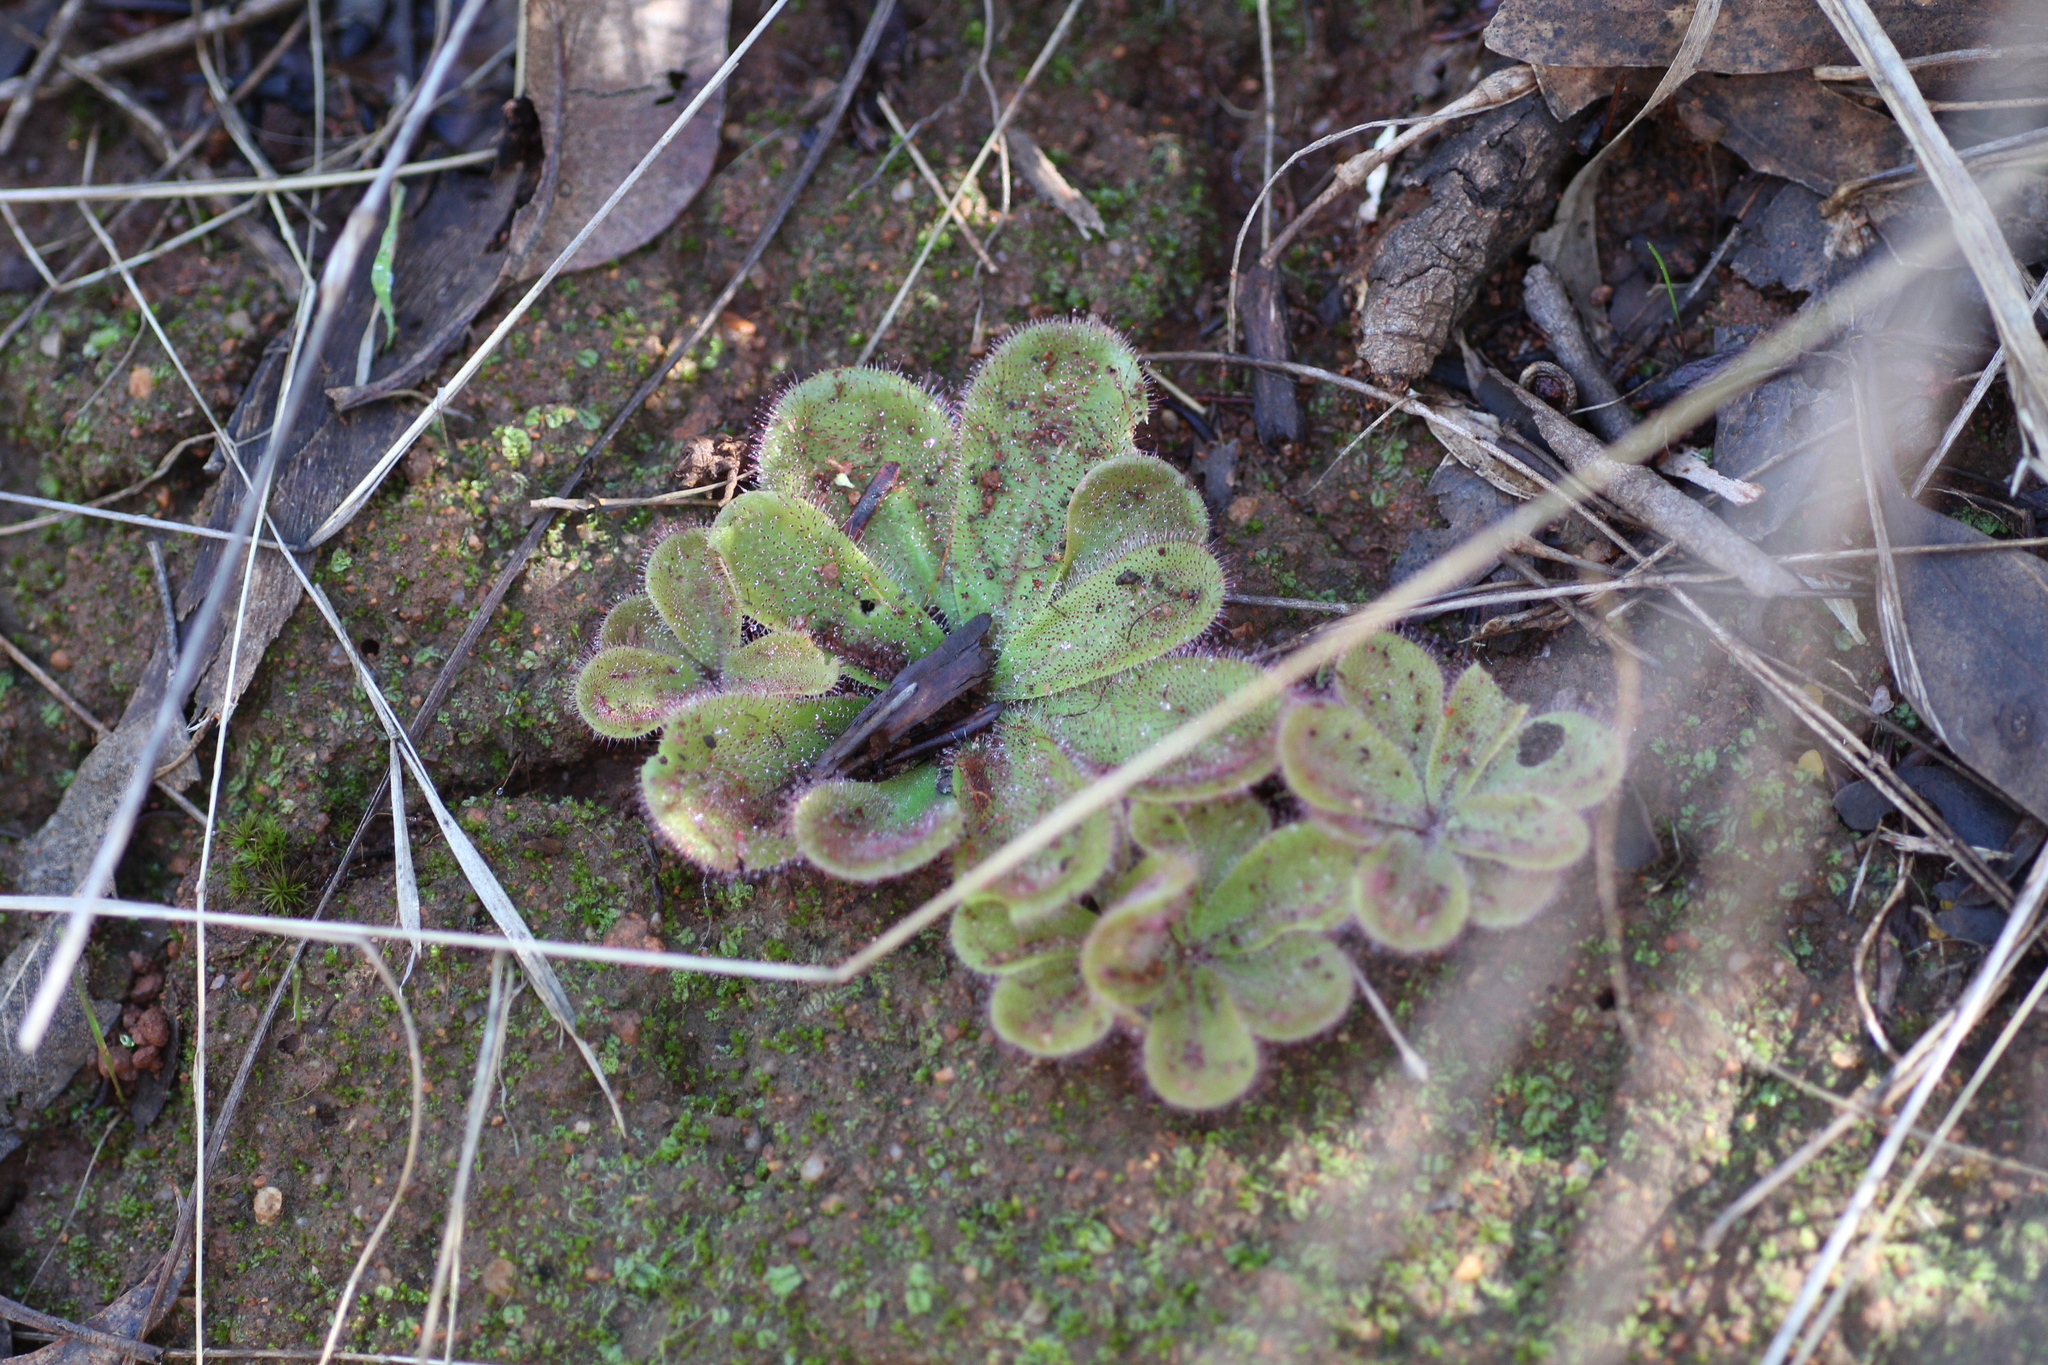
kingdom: Plantae
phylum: Tracheophyta
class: Magnoliopsida
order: Caryophyllales
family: Droseraceae
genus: Drosera
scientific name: Drosera erythrorhiza
